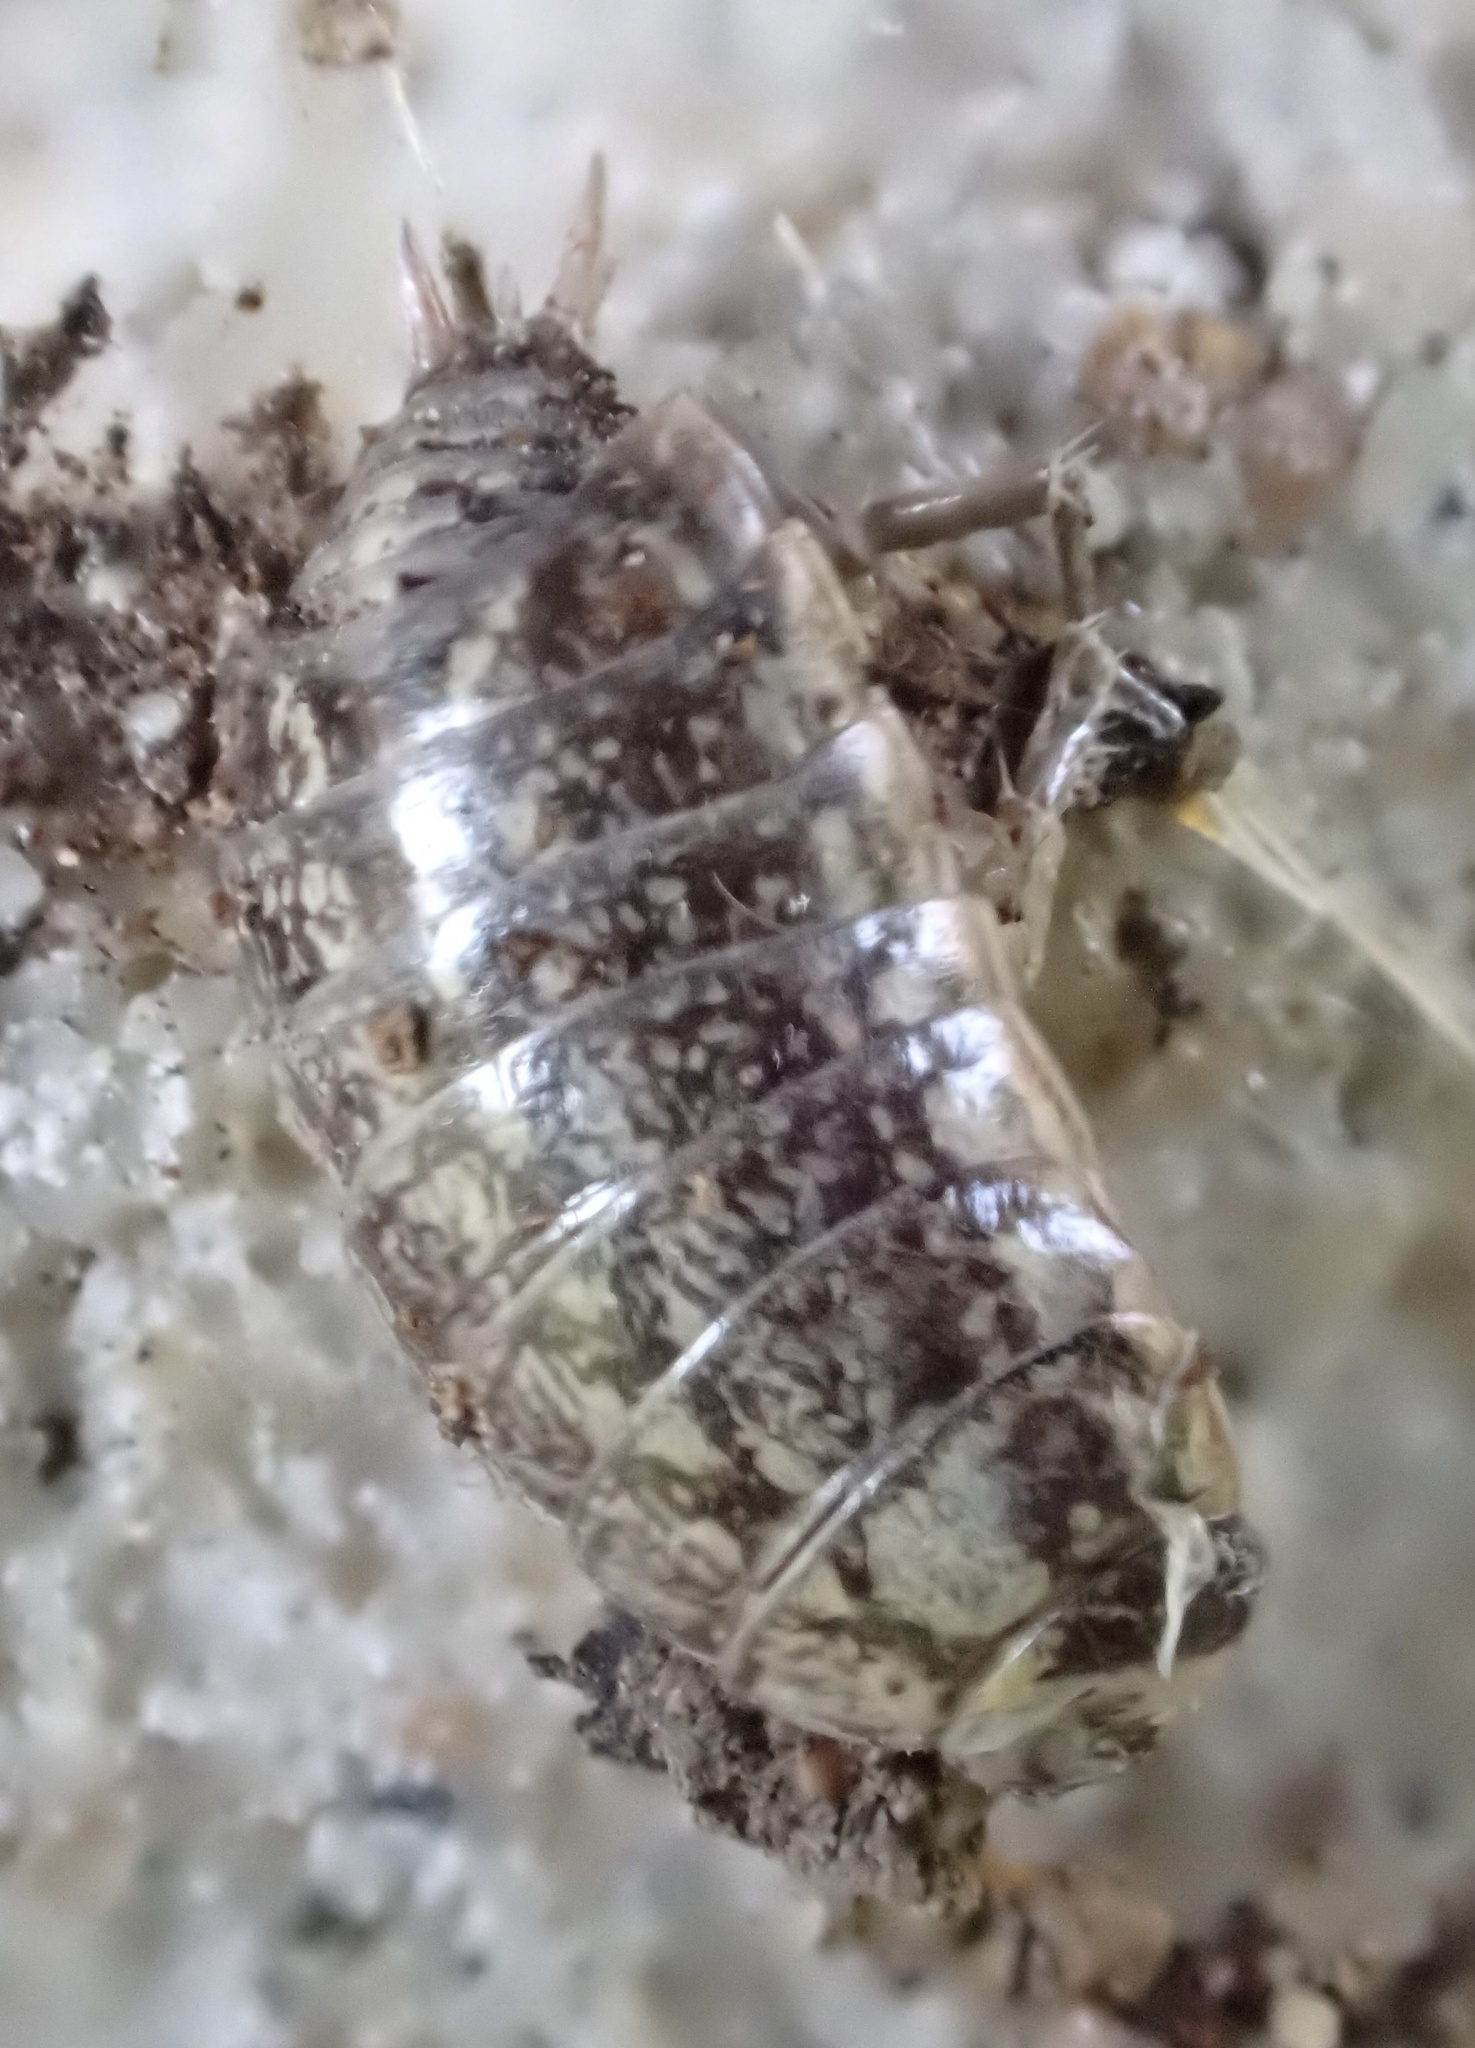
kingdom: Animalia
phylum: Arthropoda
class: Malacostraca
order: Isopoda
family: Philosciidae
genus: Philoscia
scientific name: Philoscia muscorum
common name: Common striped woodlouse
